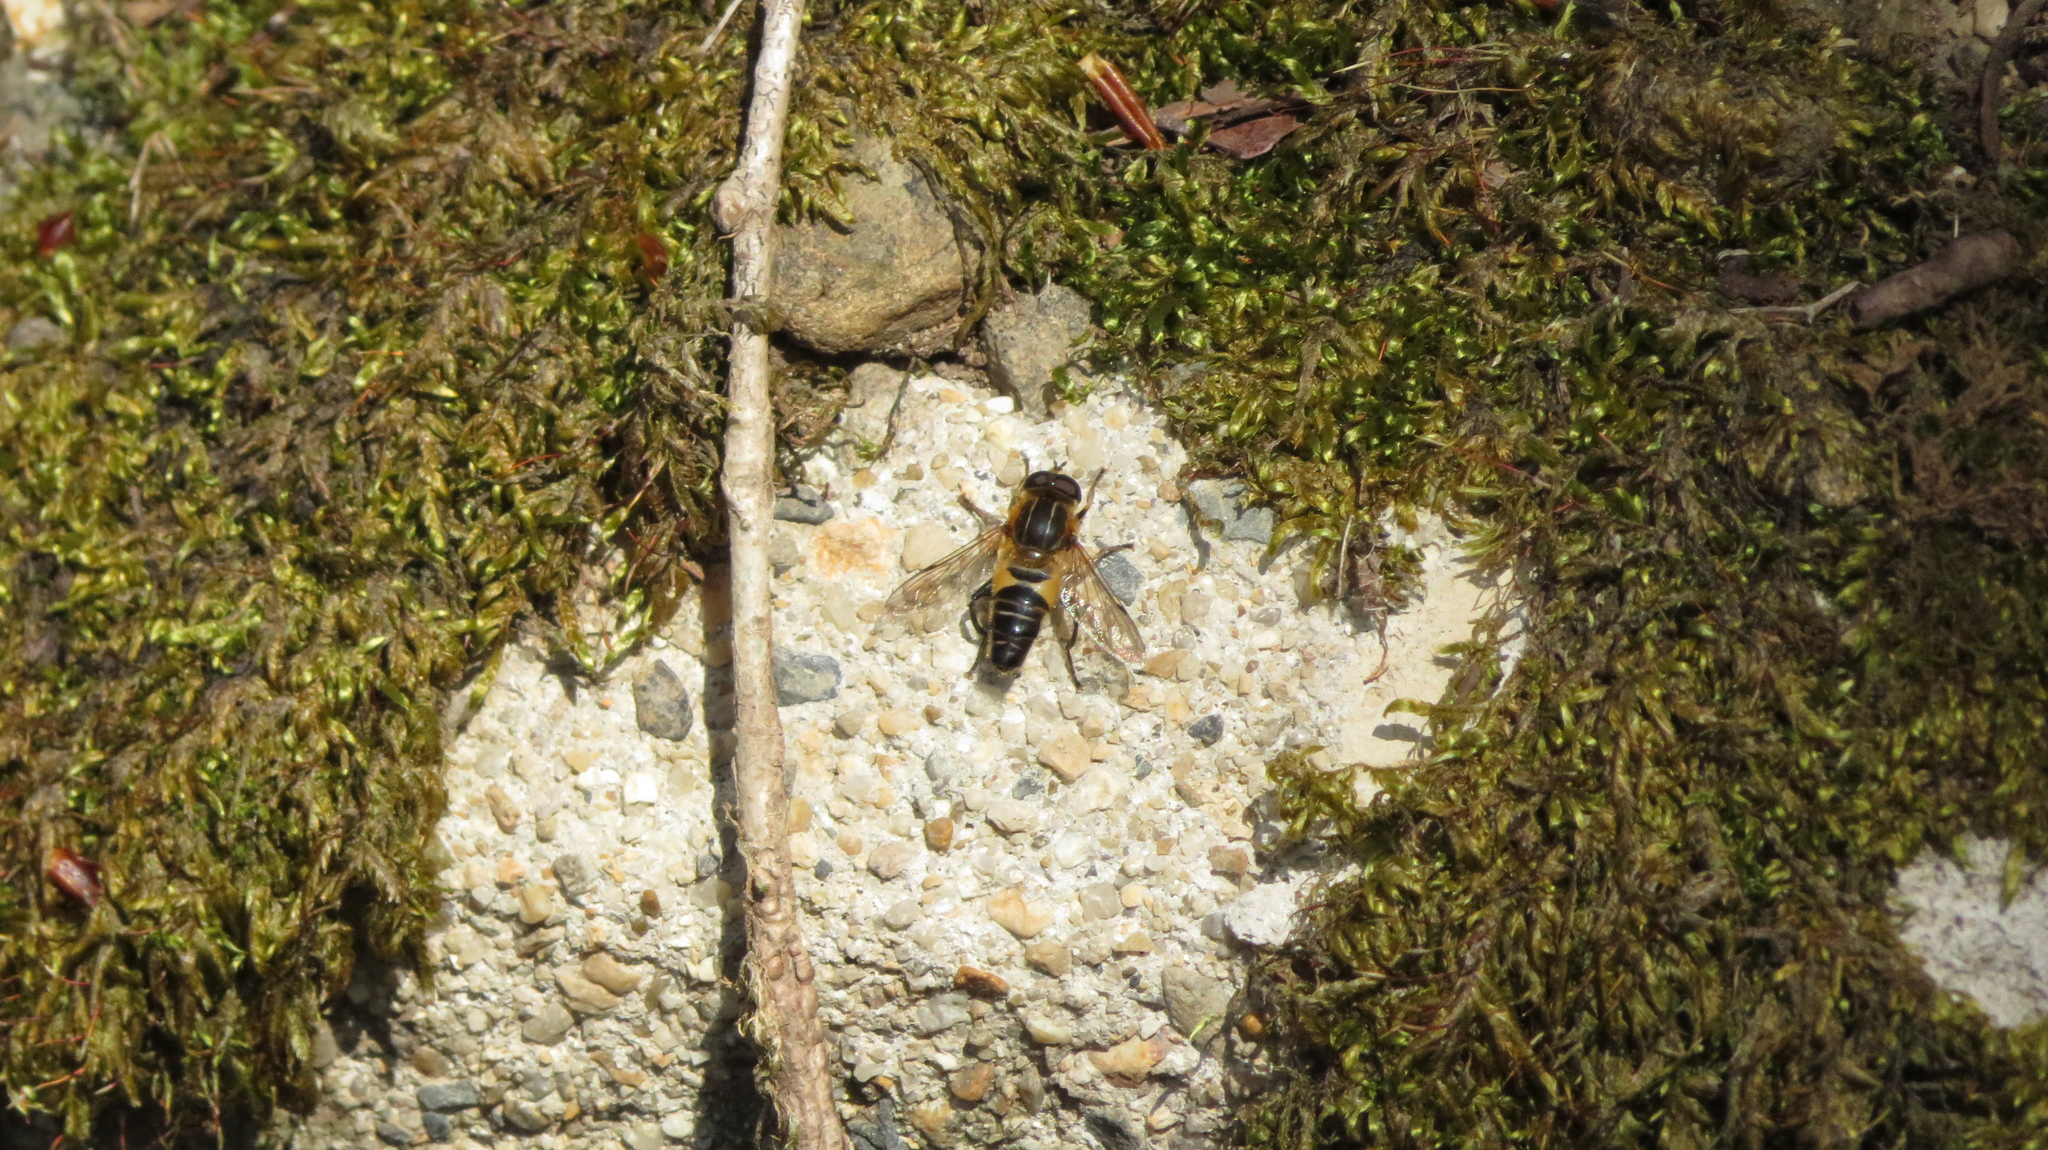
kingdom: Animalia
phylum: Arthropoda
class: Insecta
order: Diptera
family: Syrphidae
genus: Helophilus
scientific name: Helophilus eristaloideus
